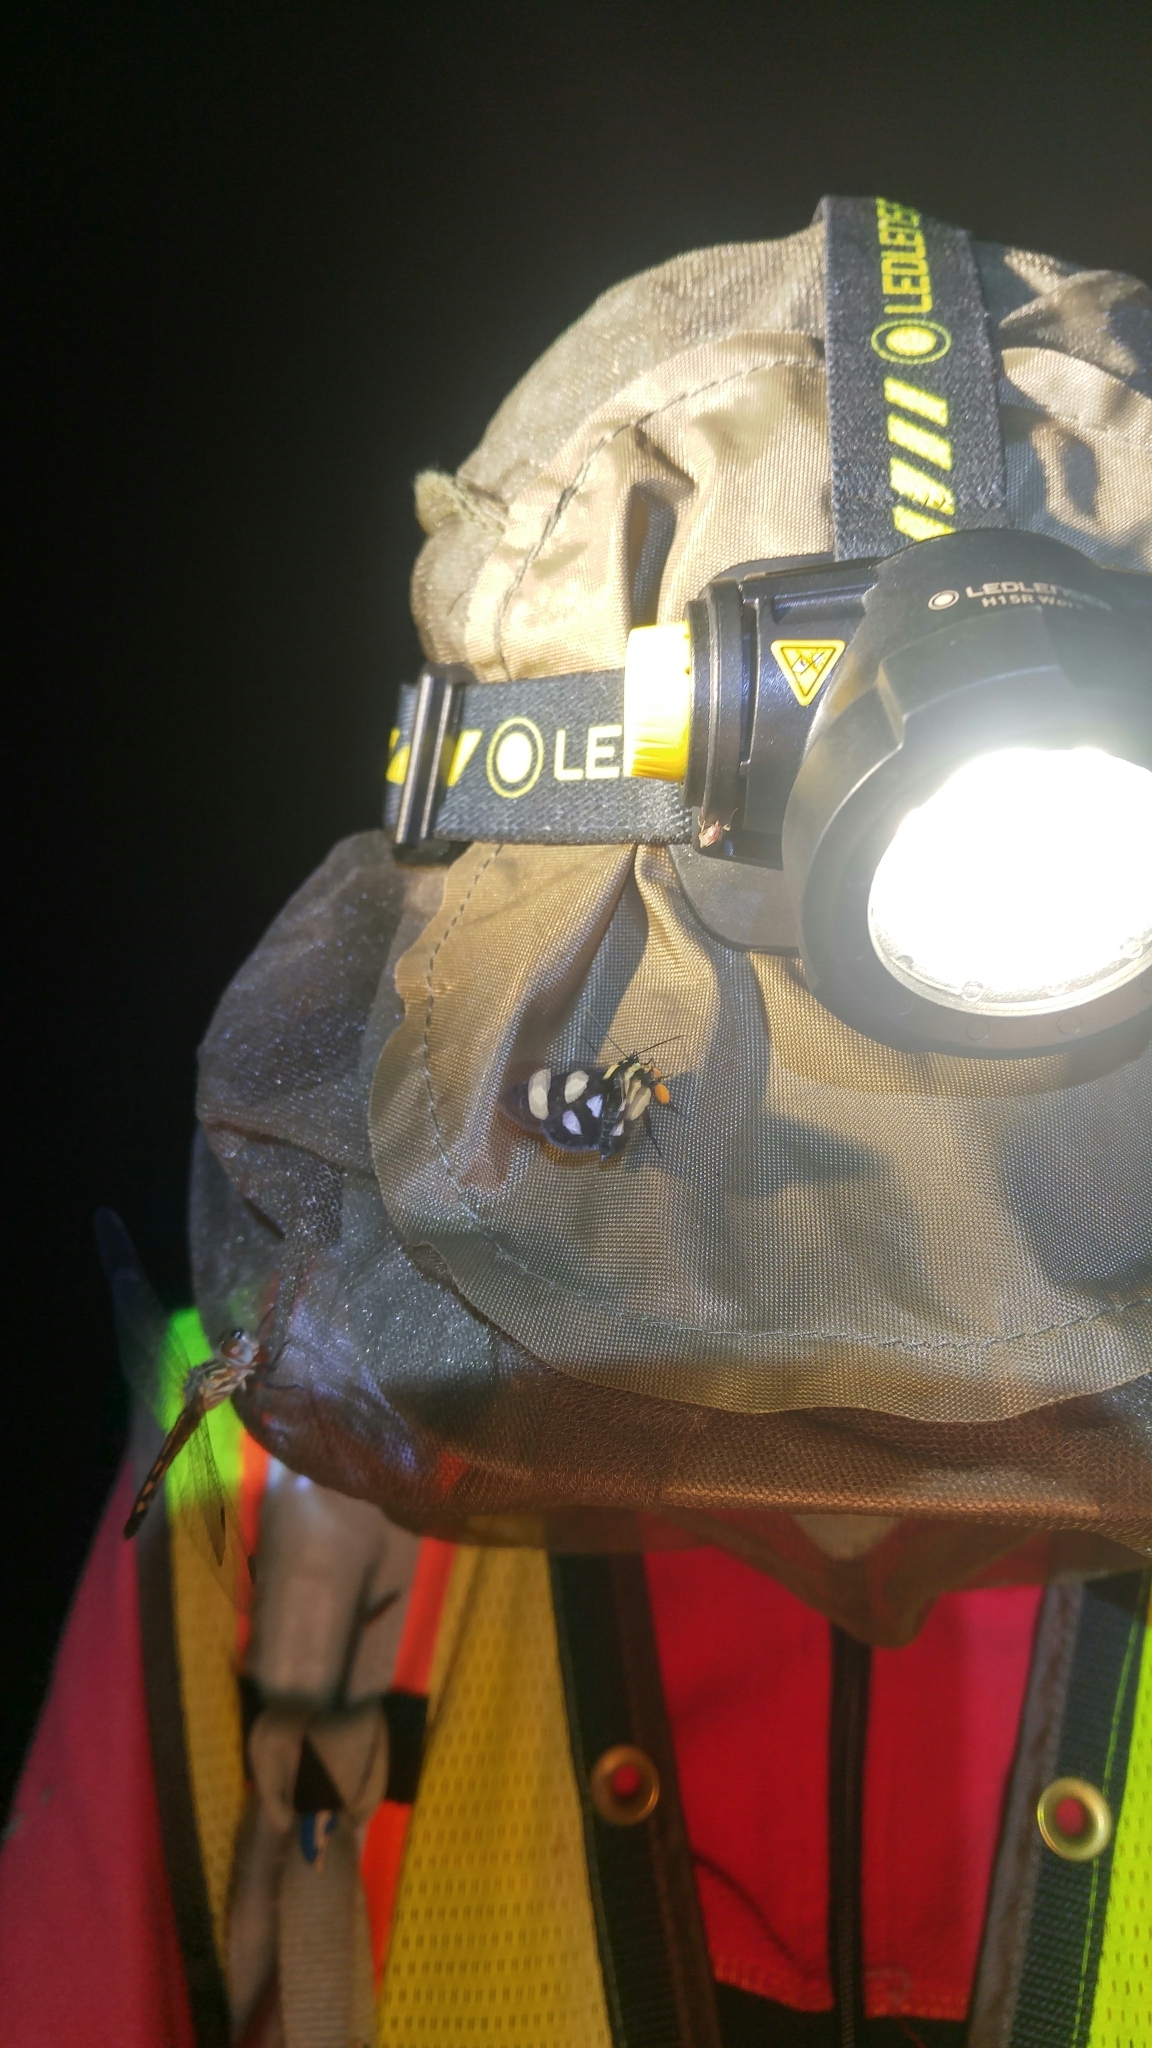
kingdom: Animalia
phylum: Arthropoda
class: Insecta
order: Lepidoptera
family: Noctuidae
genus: Alypia
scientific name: Alypia octomaculata
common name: Eight-spotted forester
